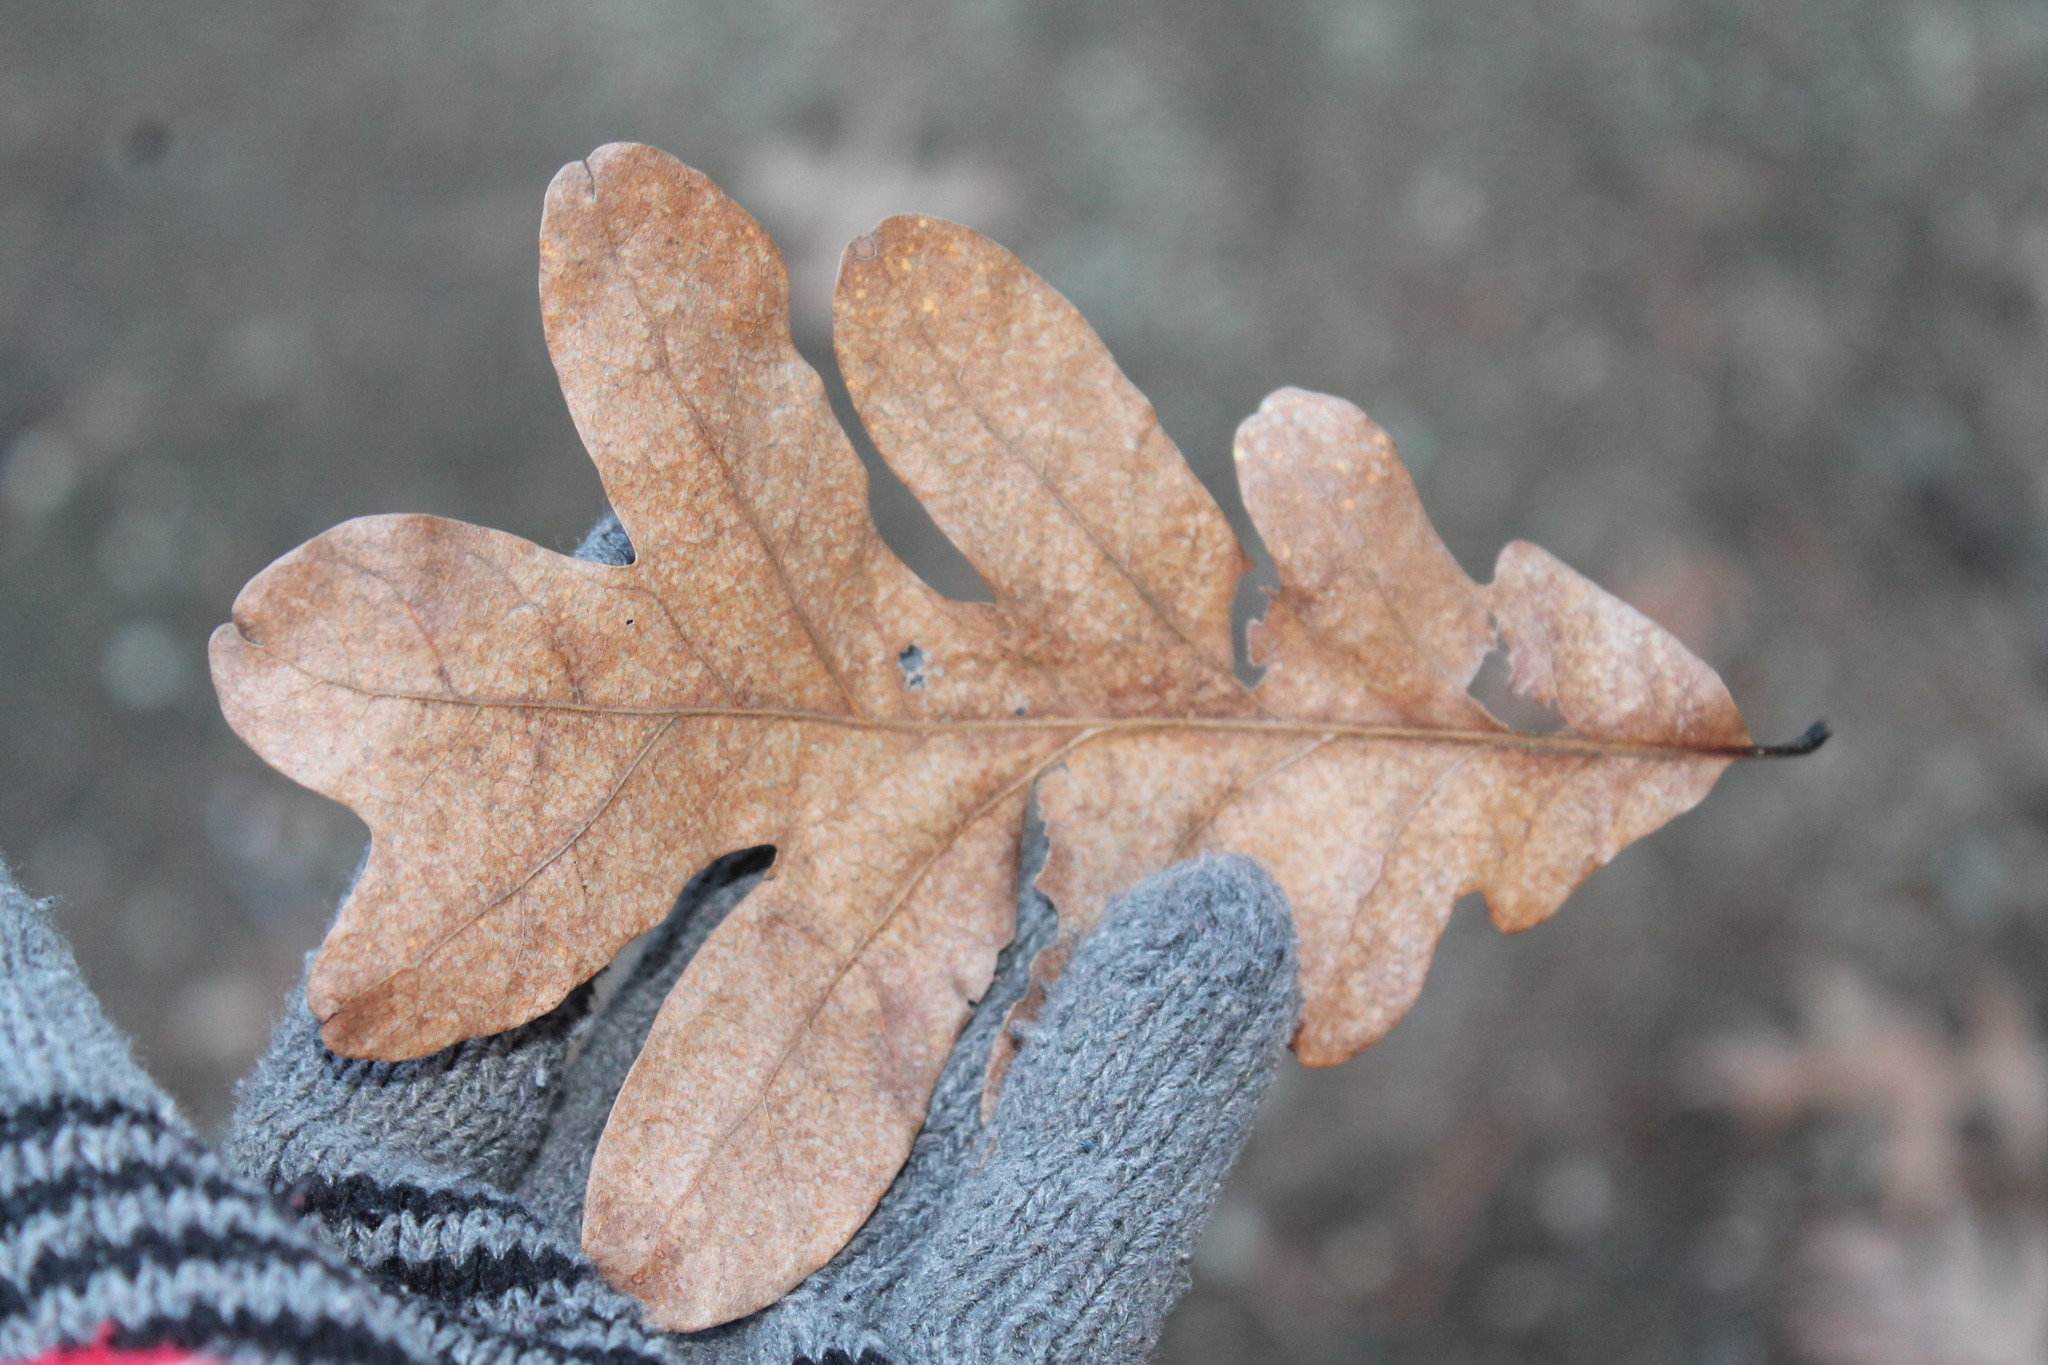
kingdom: Plantae
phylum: Tracheophyta
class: Magnoliopsida
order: Fagales
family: Fagaceae
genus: Quercus
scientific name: Quercus alba
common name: White oak
